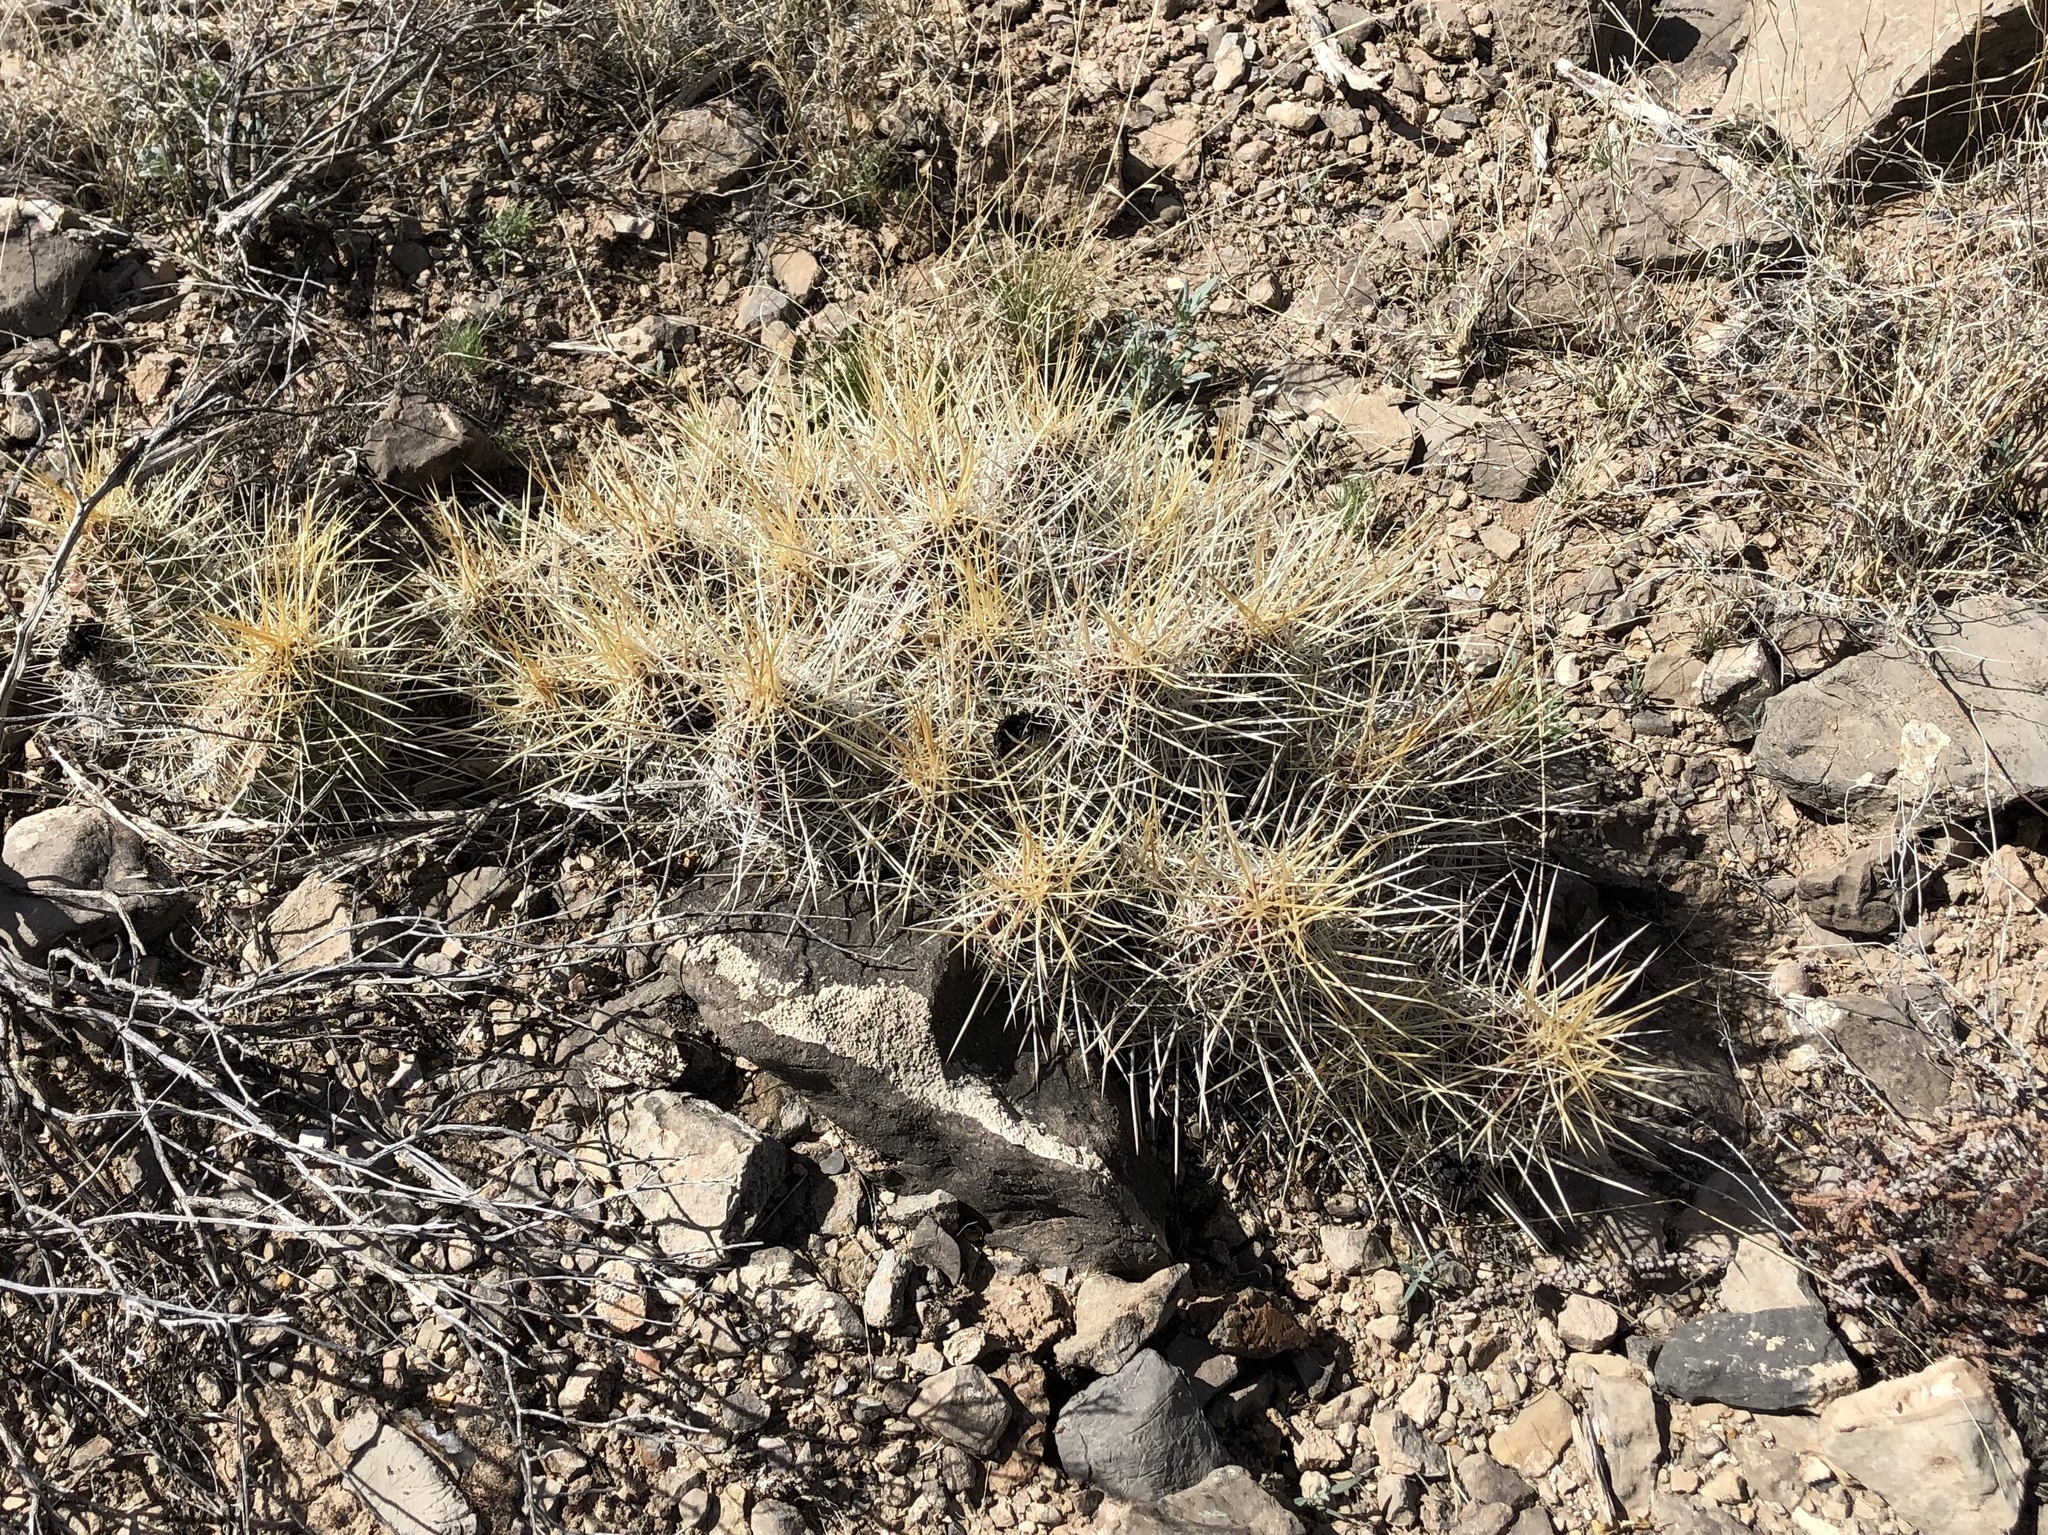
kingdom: Plantae
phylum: Tracheophyta
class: Magnoliopsida
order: Caryophyllales
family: Cactaceae
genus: Echinocereus
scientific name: Echinocereus stramineus
